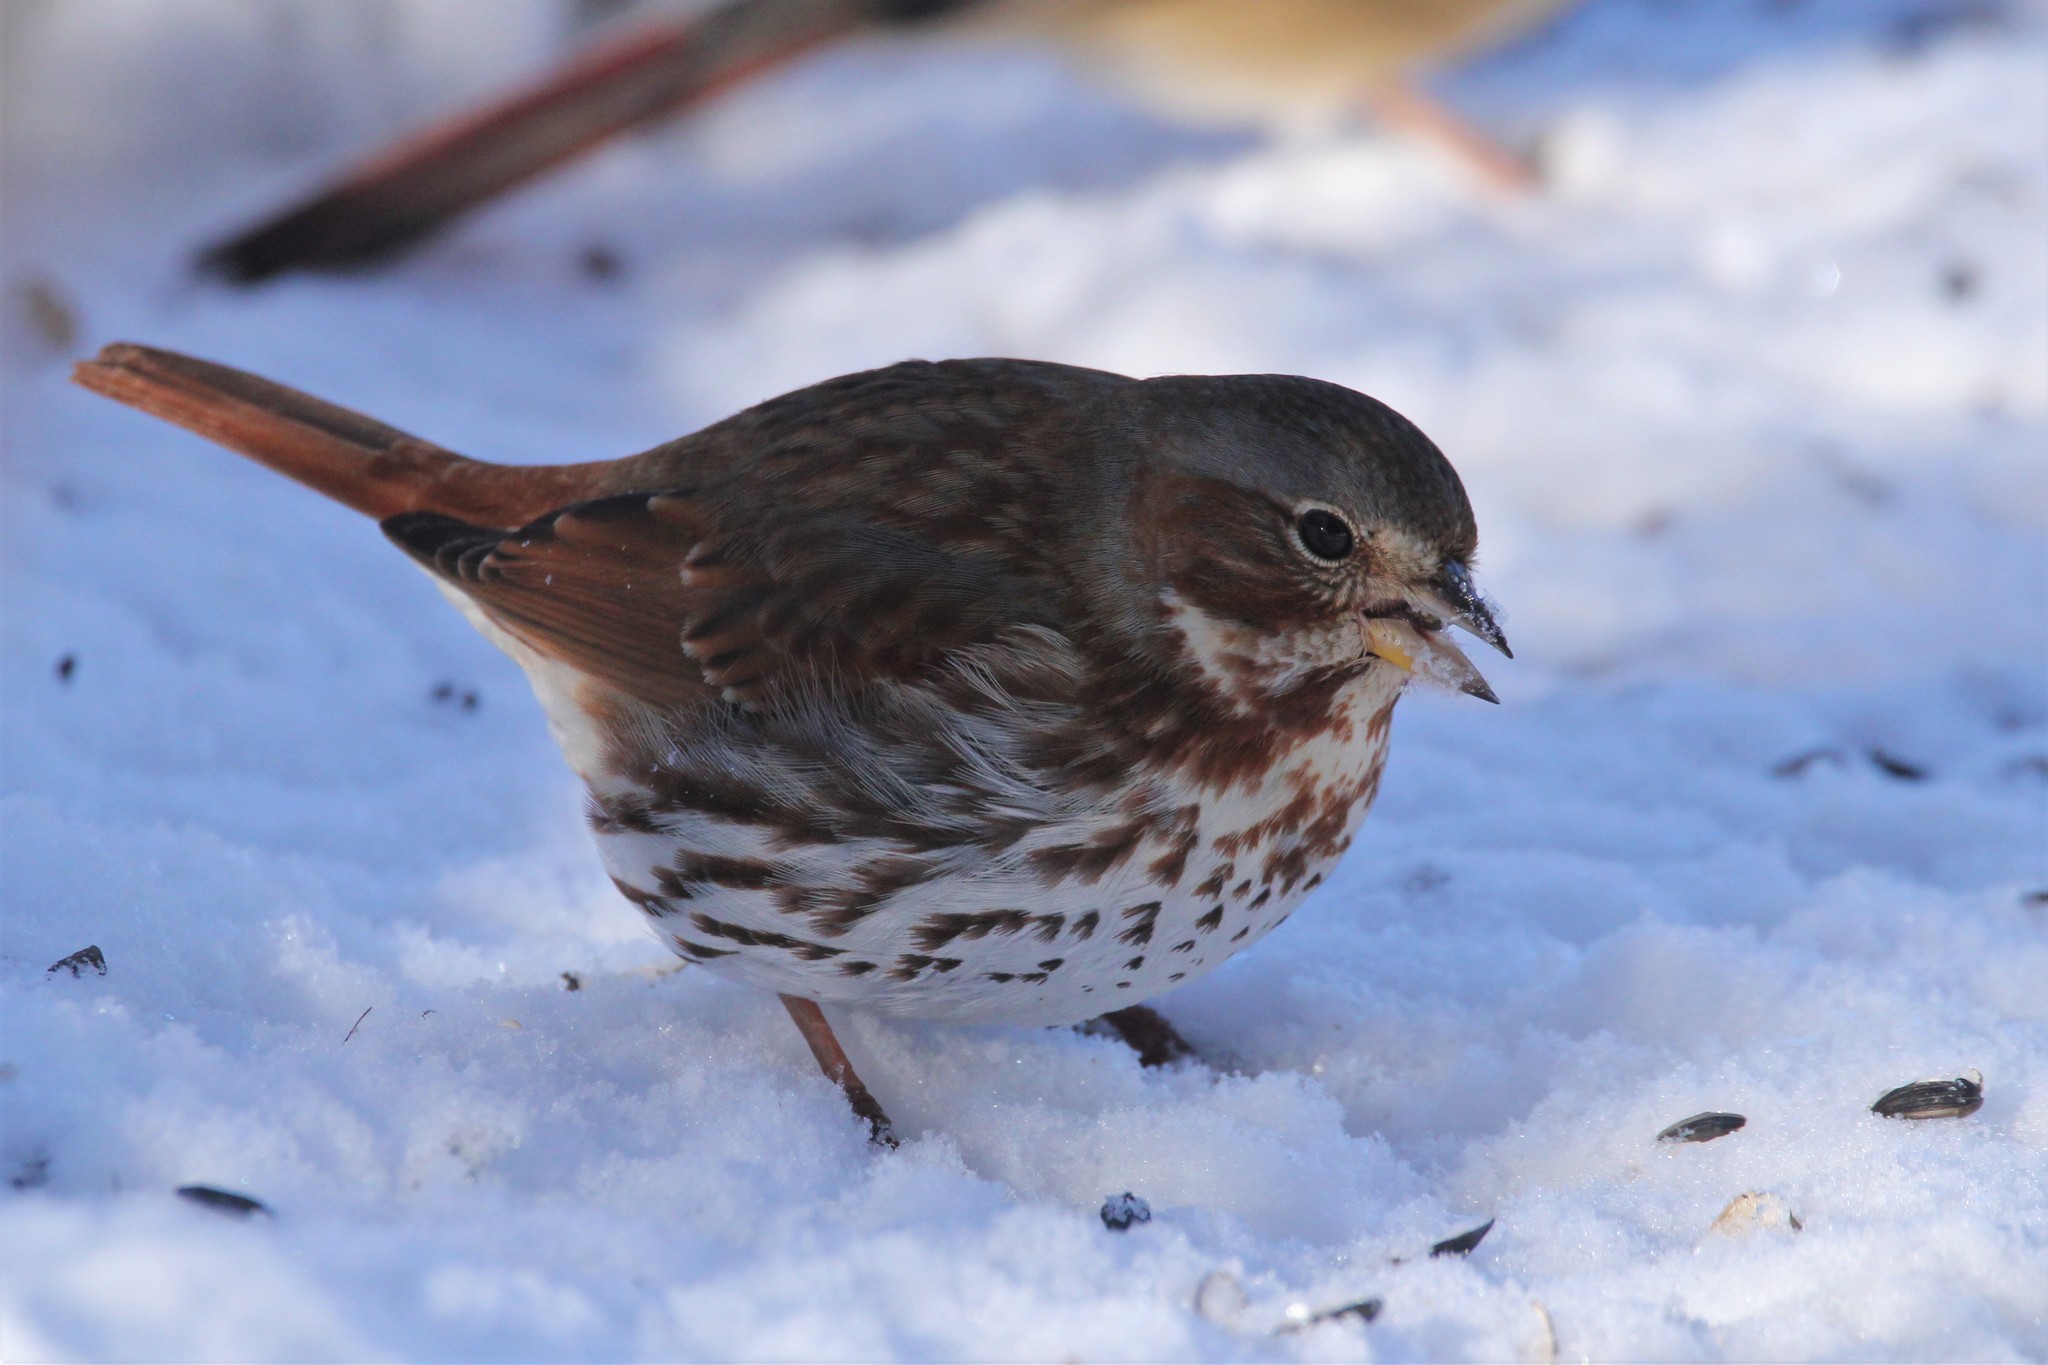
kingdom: Animalia
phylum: Chordata
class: Aves
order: Passeriformes
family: Passerellidae
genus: Passerella
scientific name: Passerella iliaca
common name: Fox sparrow
